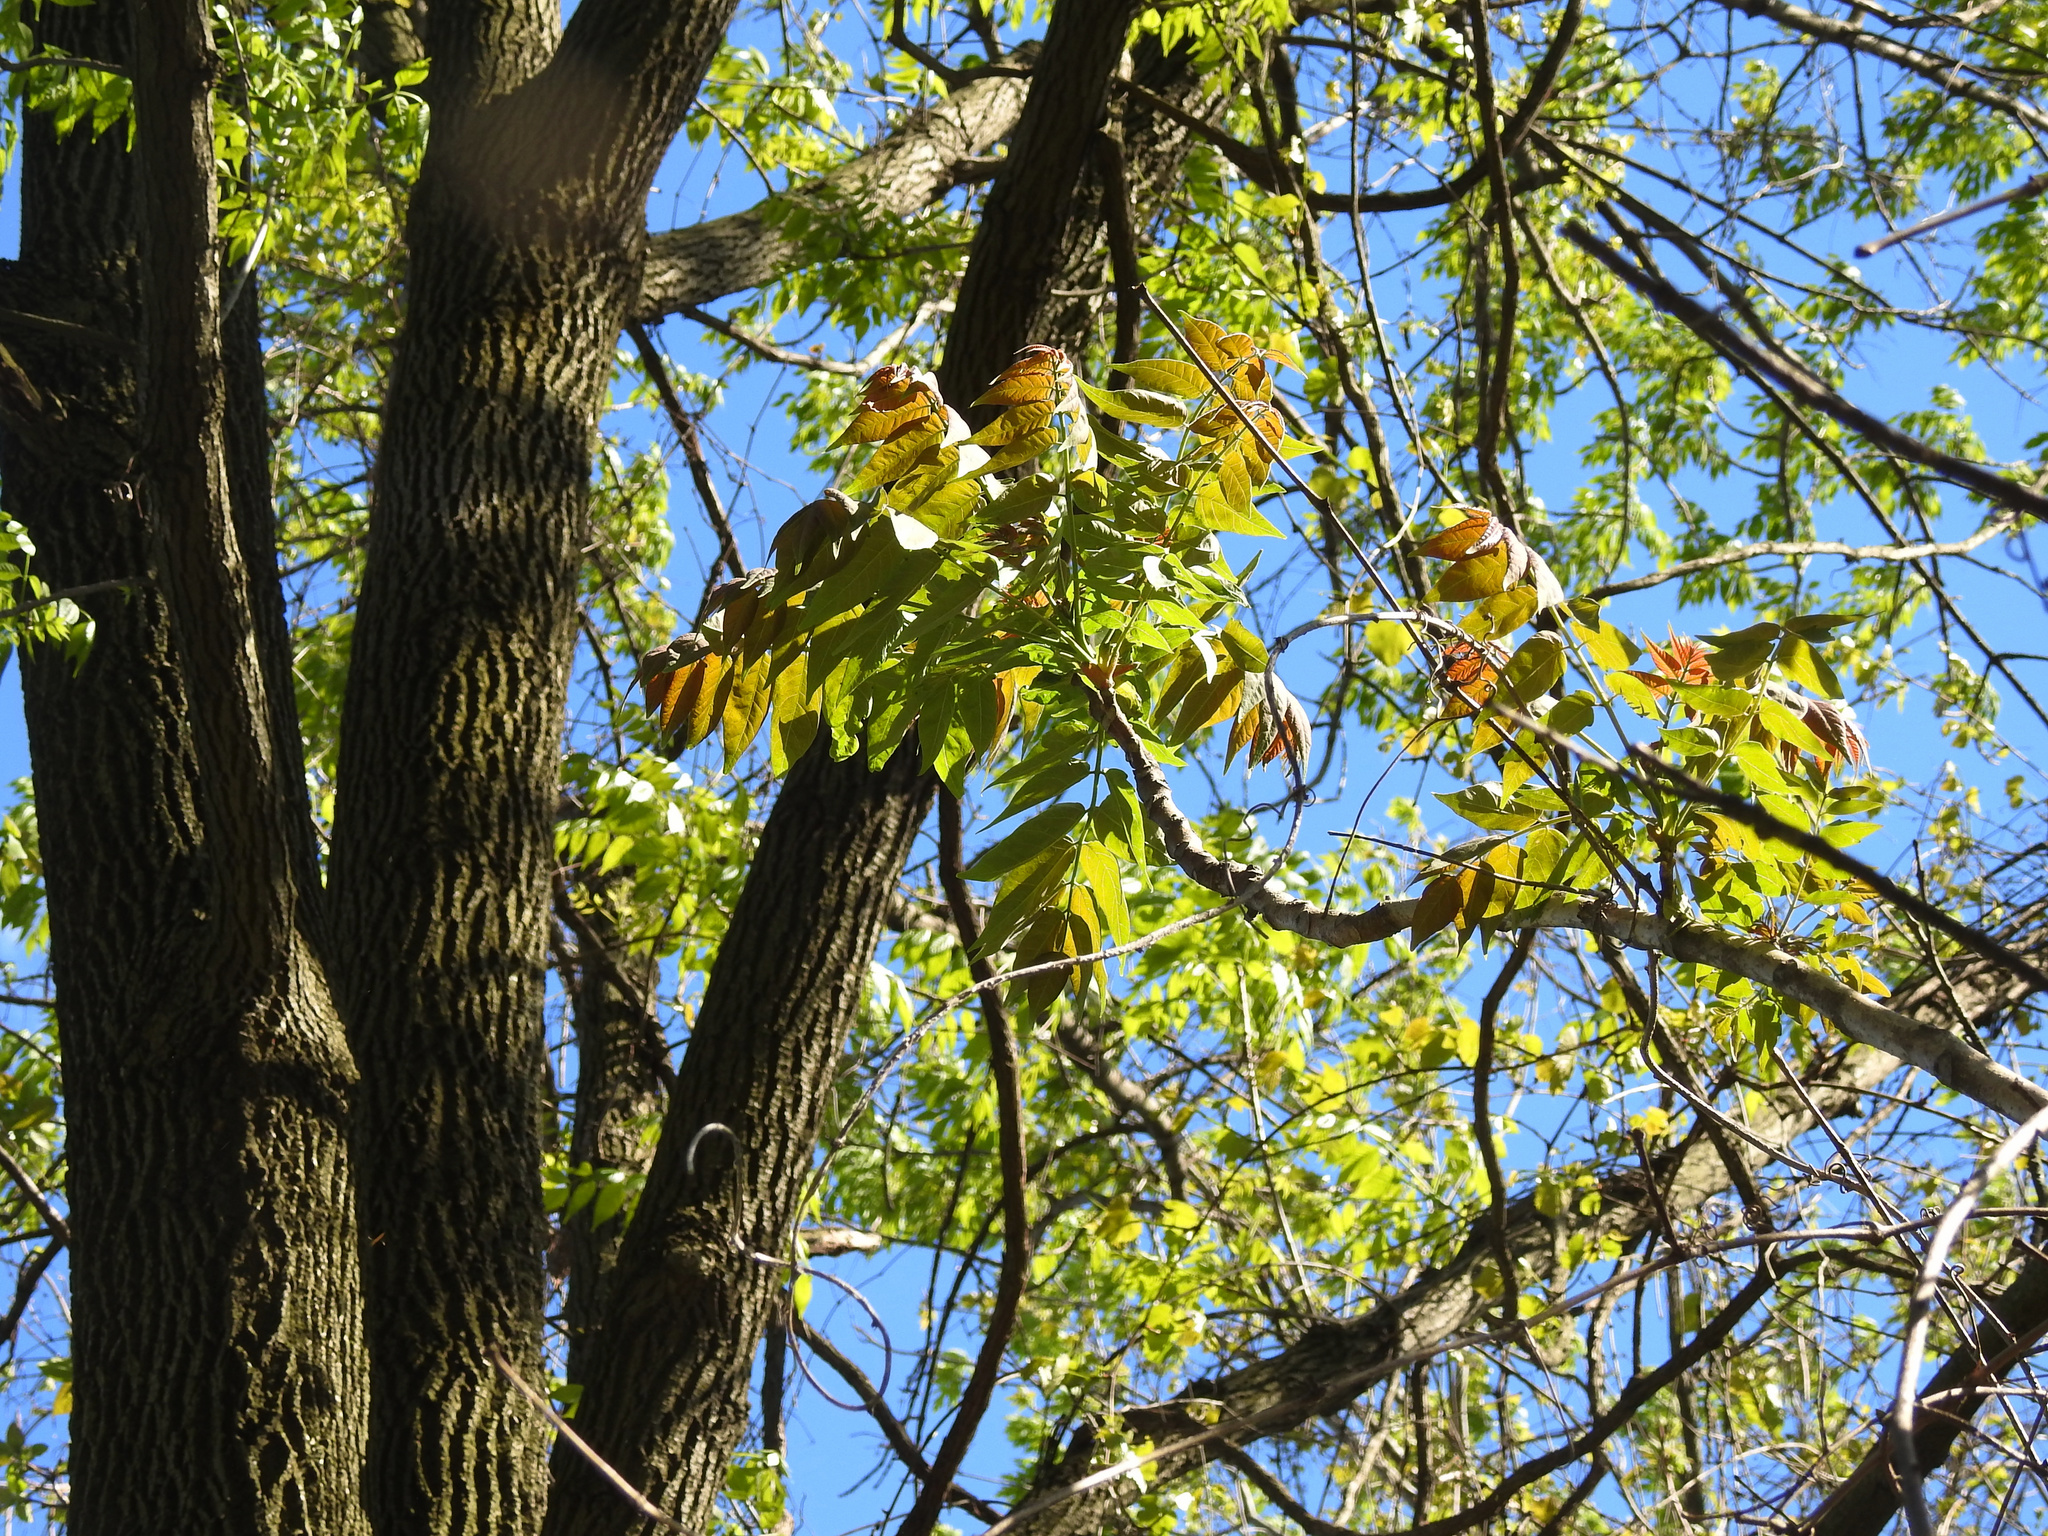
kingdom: Plantae
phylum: Tracheophyta
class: Magnoliopsida
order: Fagales
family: Juglandaceae
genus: Juglans
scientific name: Juglans nigra
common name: Black walnut
